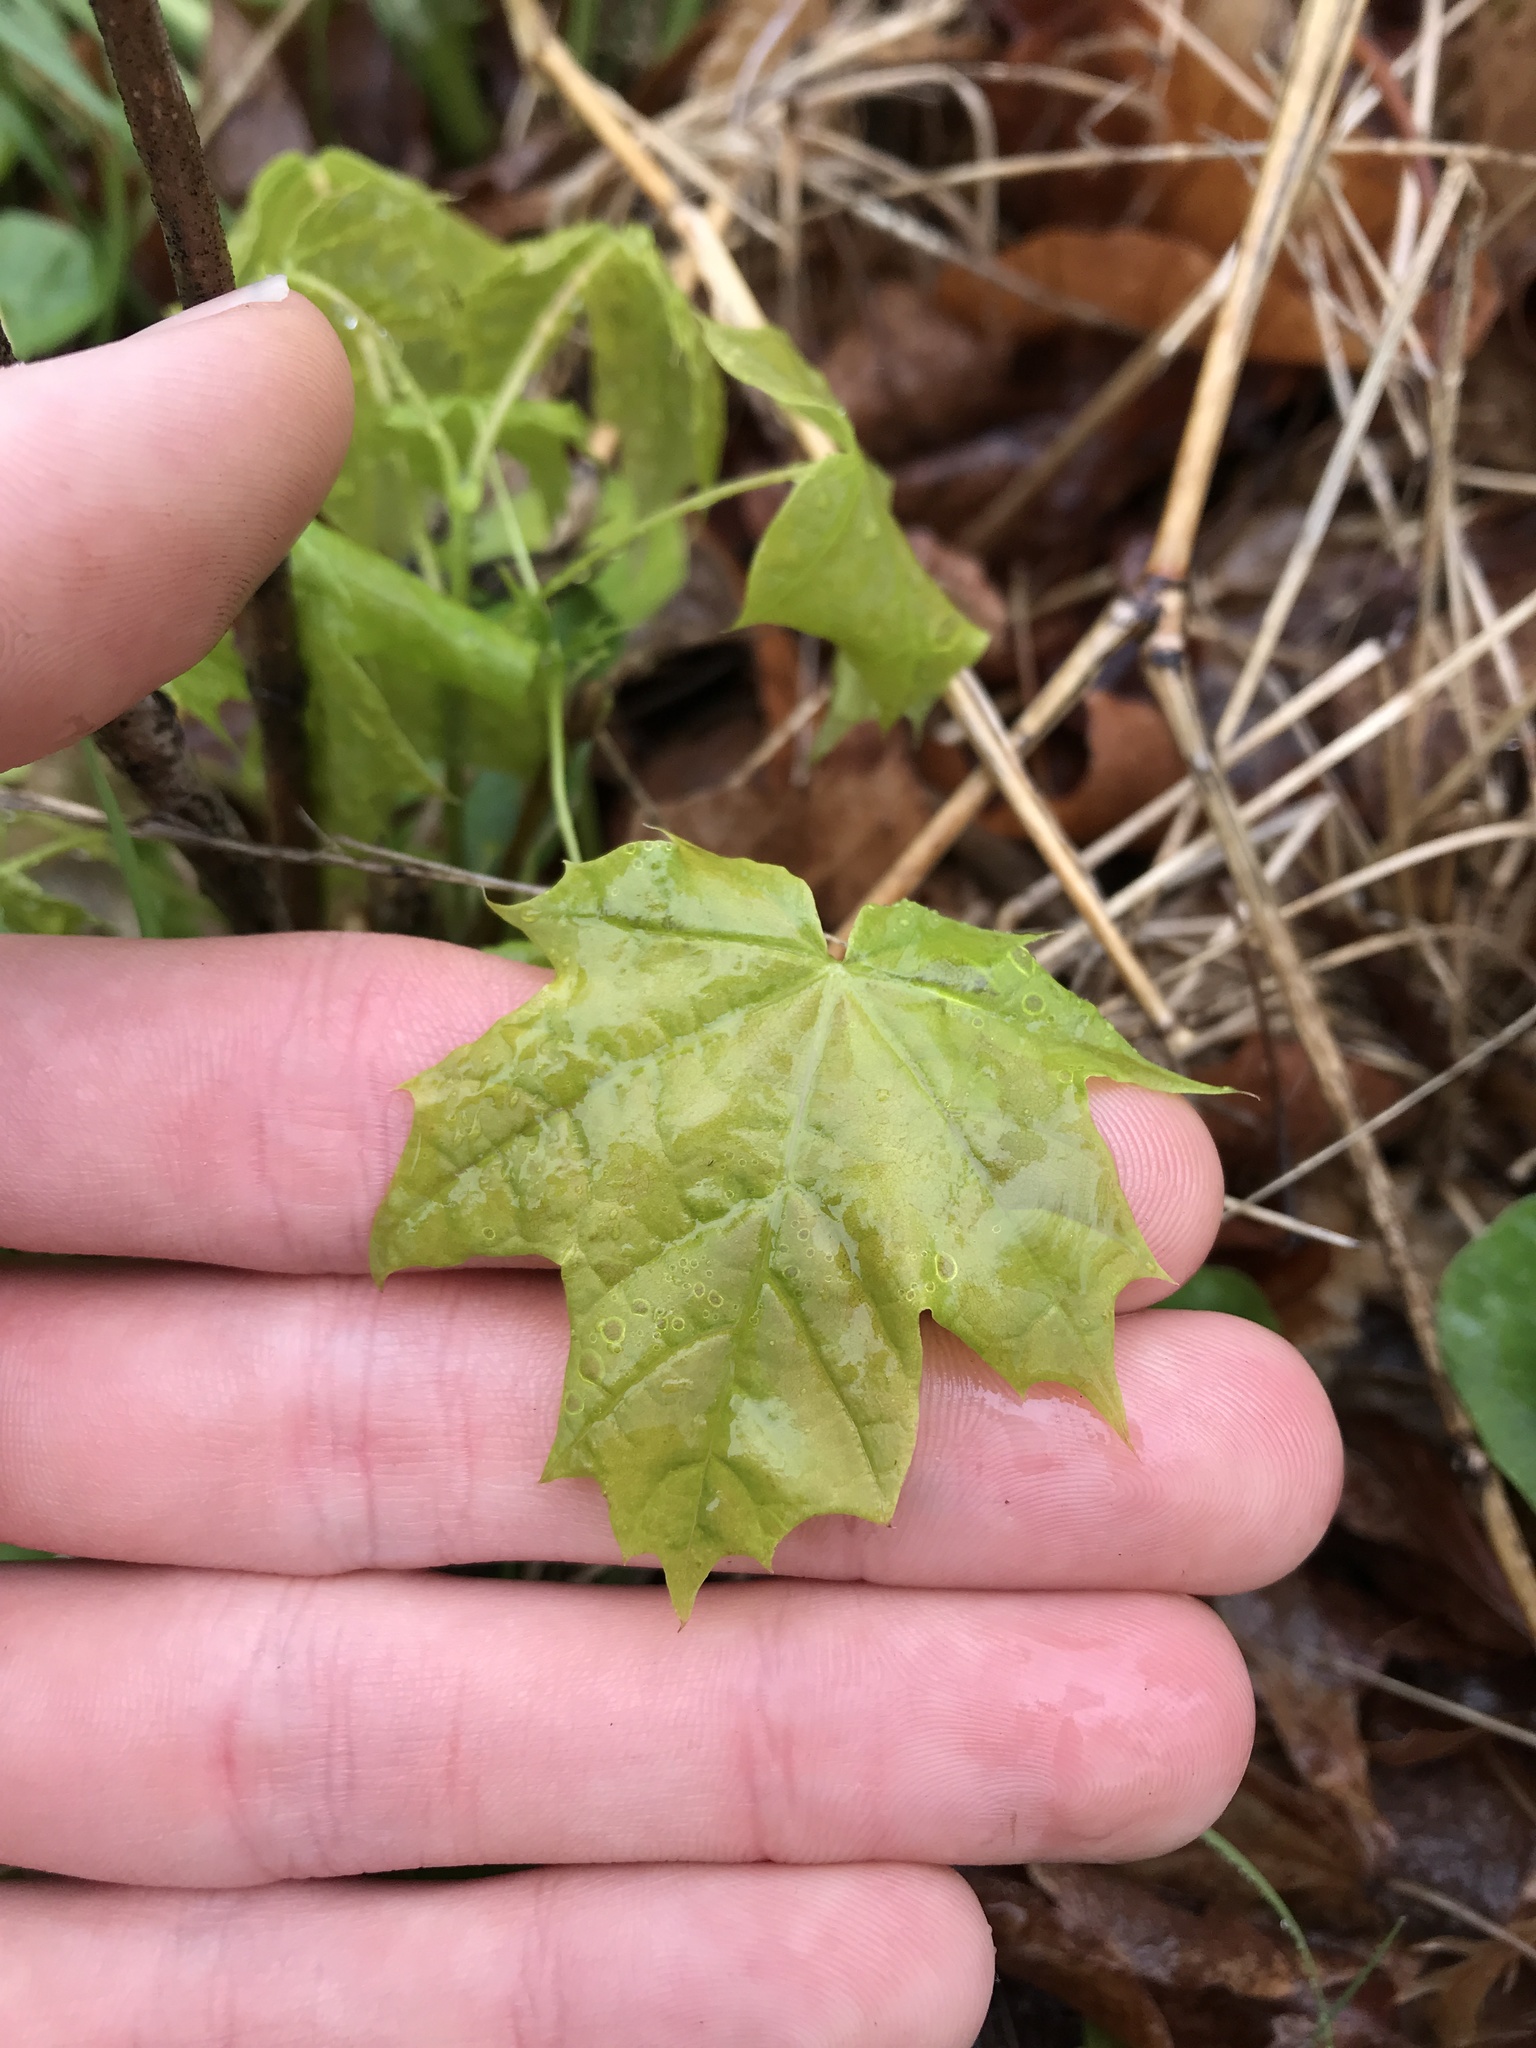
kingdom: Plantae
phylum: Tracheophyta
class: Magnoliopsida
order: Sapindales
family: Sapindaceae
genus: Acer
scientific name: Acer platanoides
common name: Norway maple
